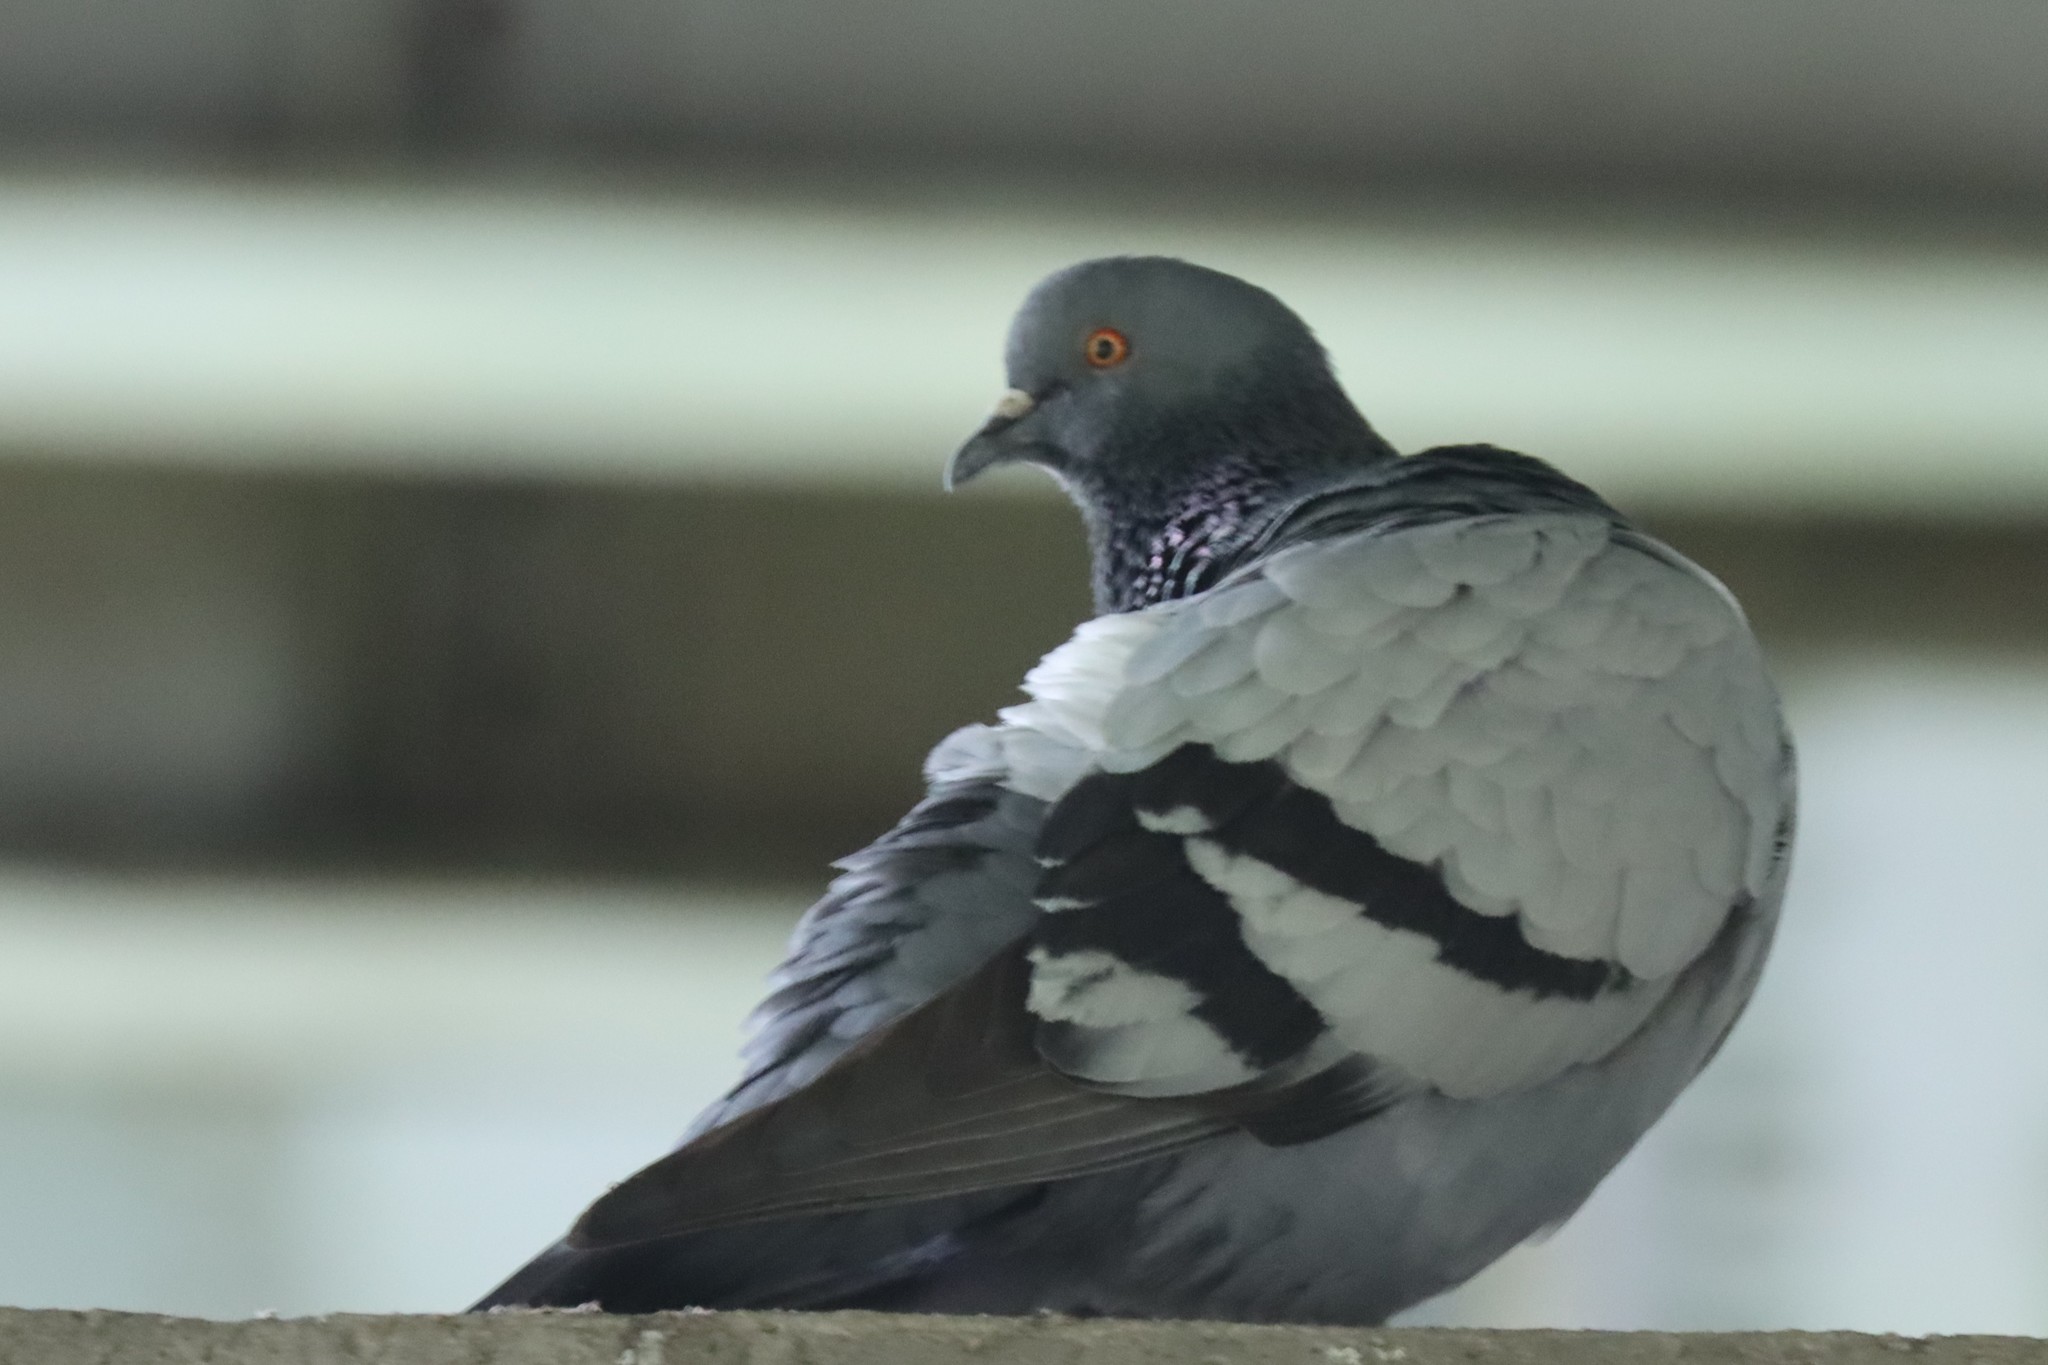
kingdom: Animalia
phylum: Chordata
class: Aves
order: Columbiformes
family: Columbidae
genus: Columba
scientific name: Columba livia
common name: Rock pigeon
